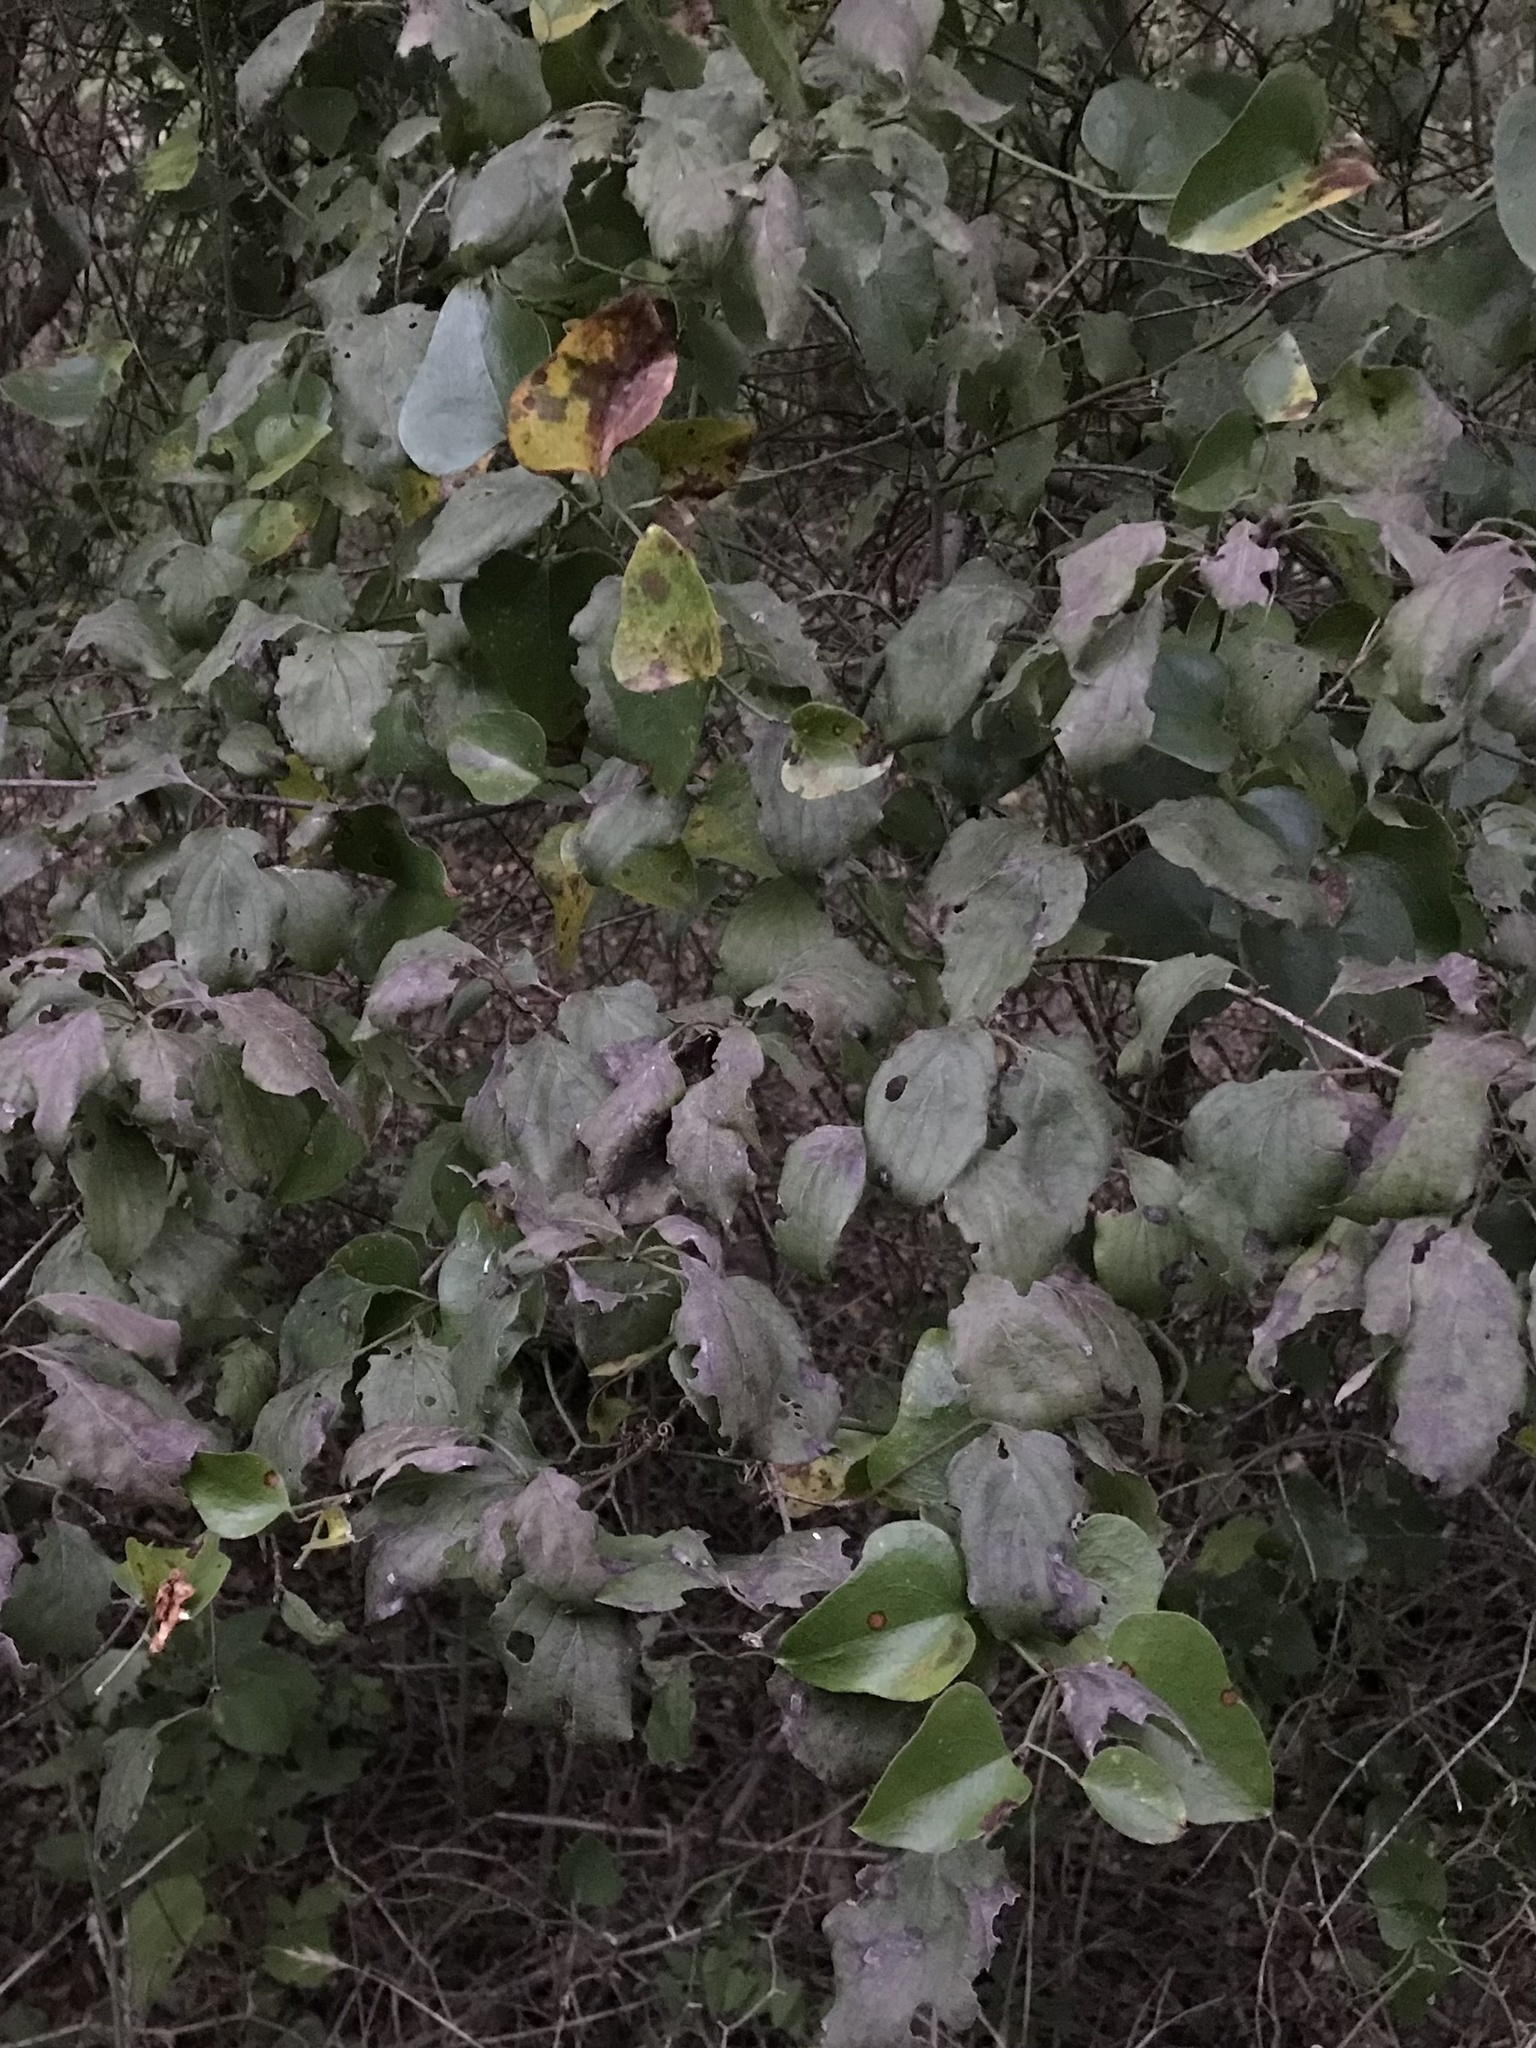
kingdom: Plantae
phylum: Tracheophyta
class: Magnoliopsida
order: Cornales
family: Cornaceae
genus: Cornus
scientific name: Cornus drummondii
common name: Rough-leaf dogwood
